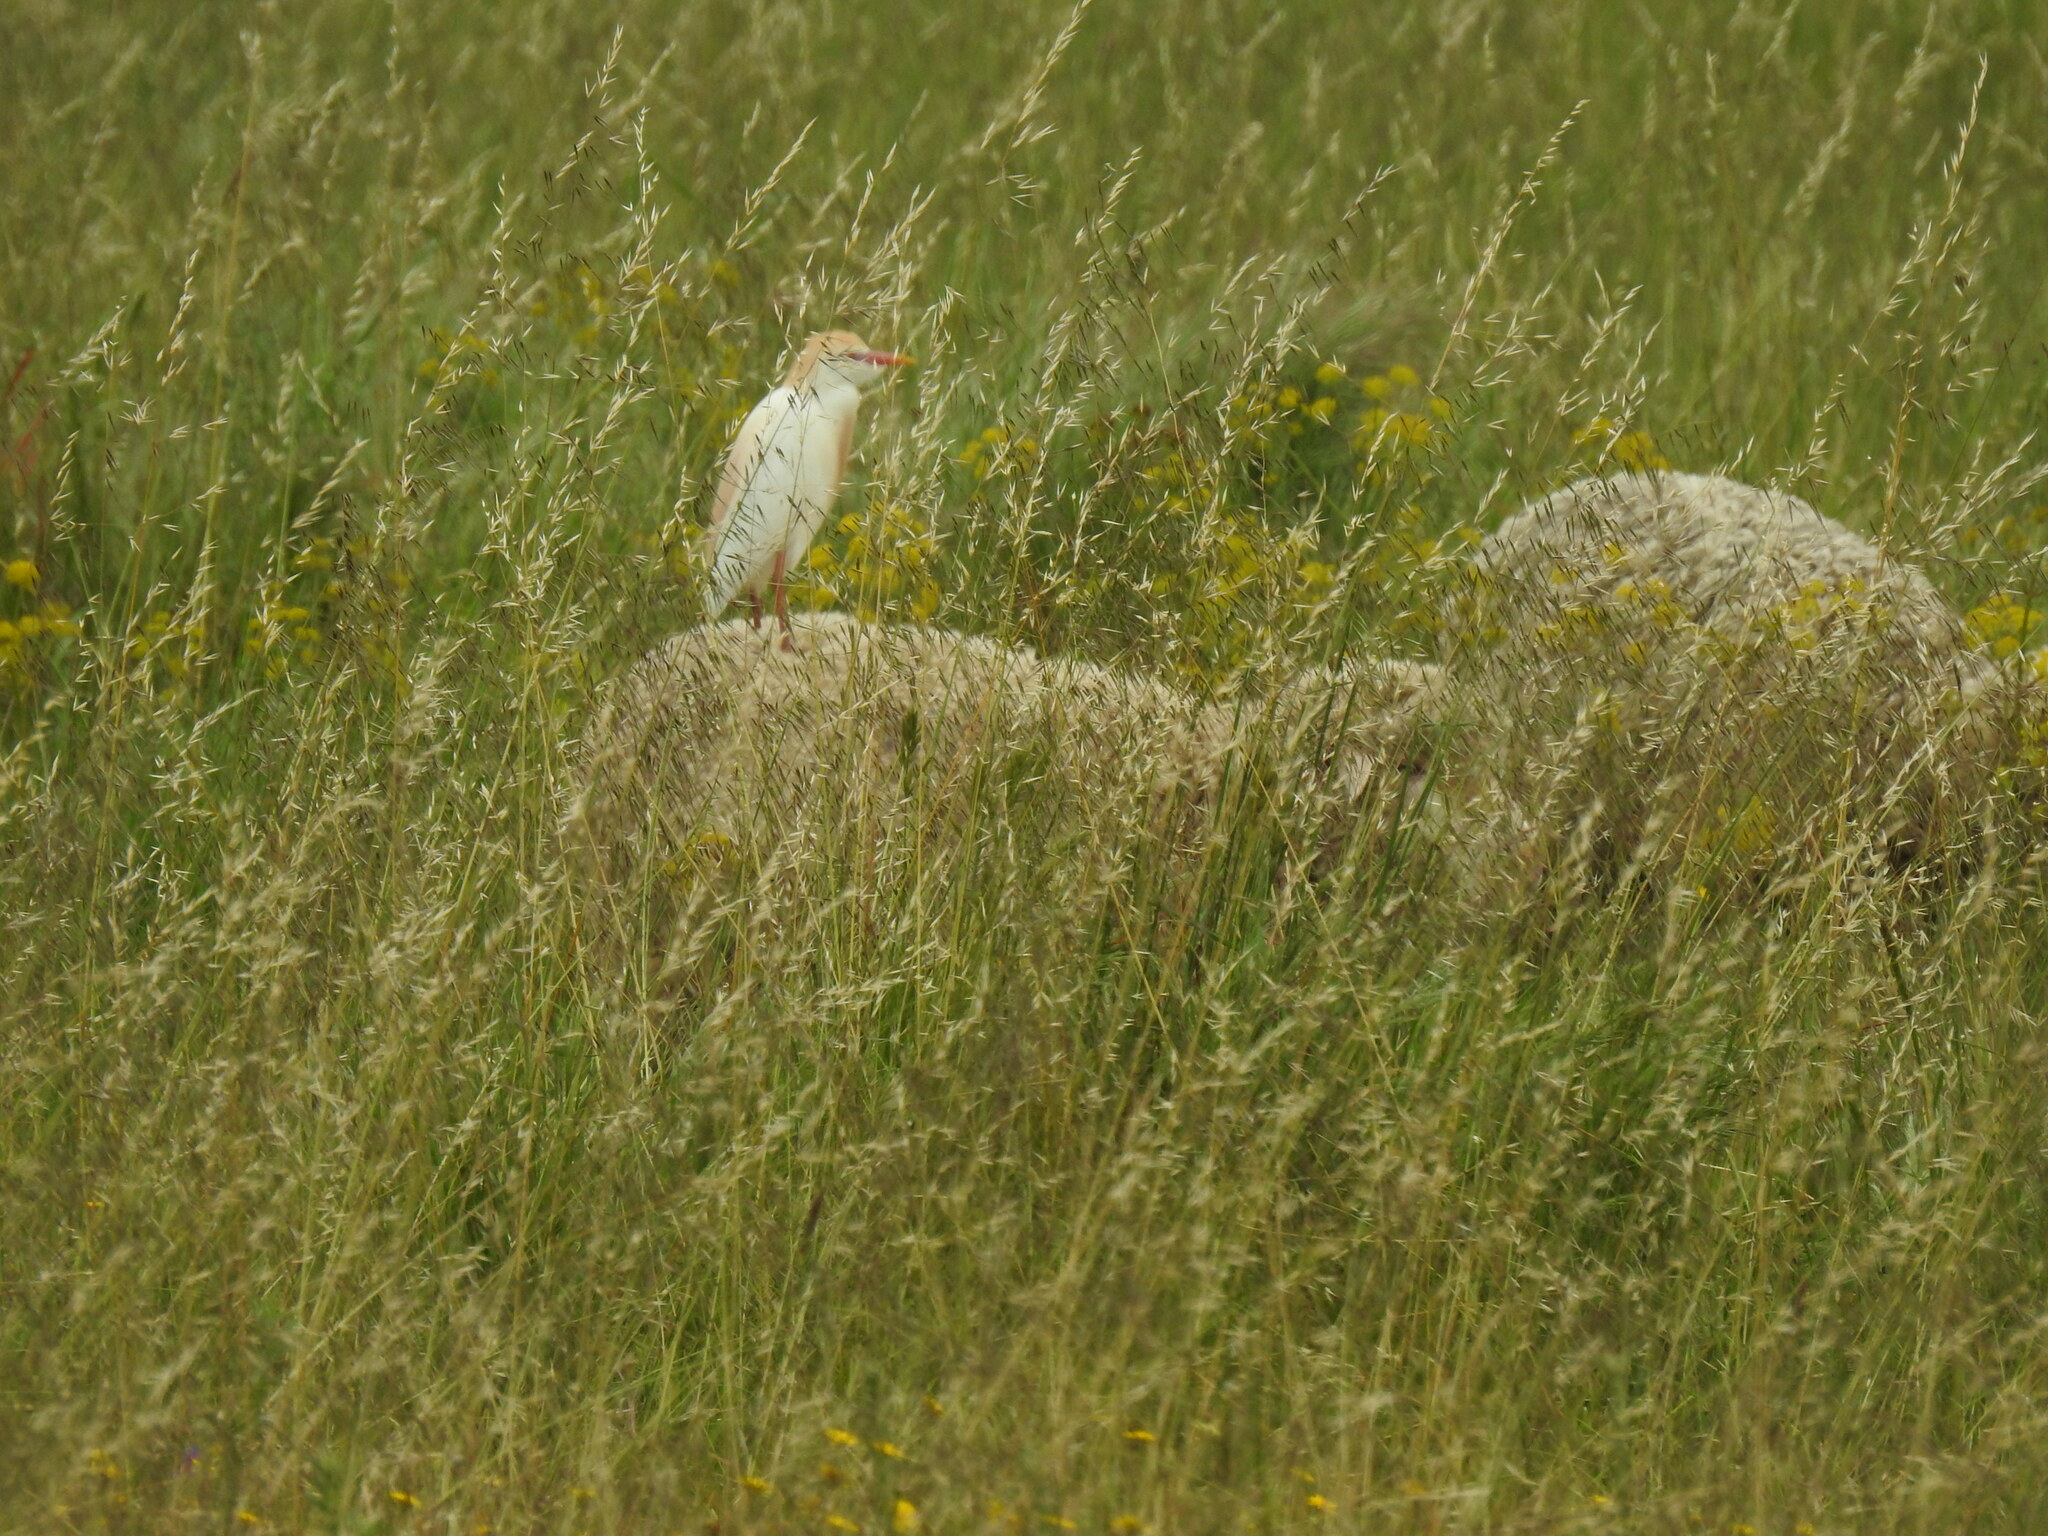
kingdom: Animalia
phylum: Chordata
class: Aves
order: Pelecaniformes
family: Ardeidae
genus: Bubulcus
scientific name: Bubulcus ibis
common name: Cattle egret
